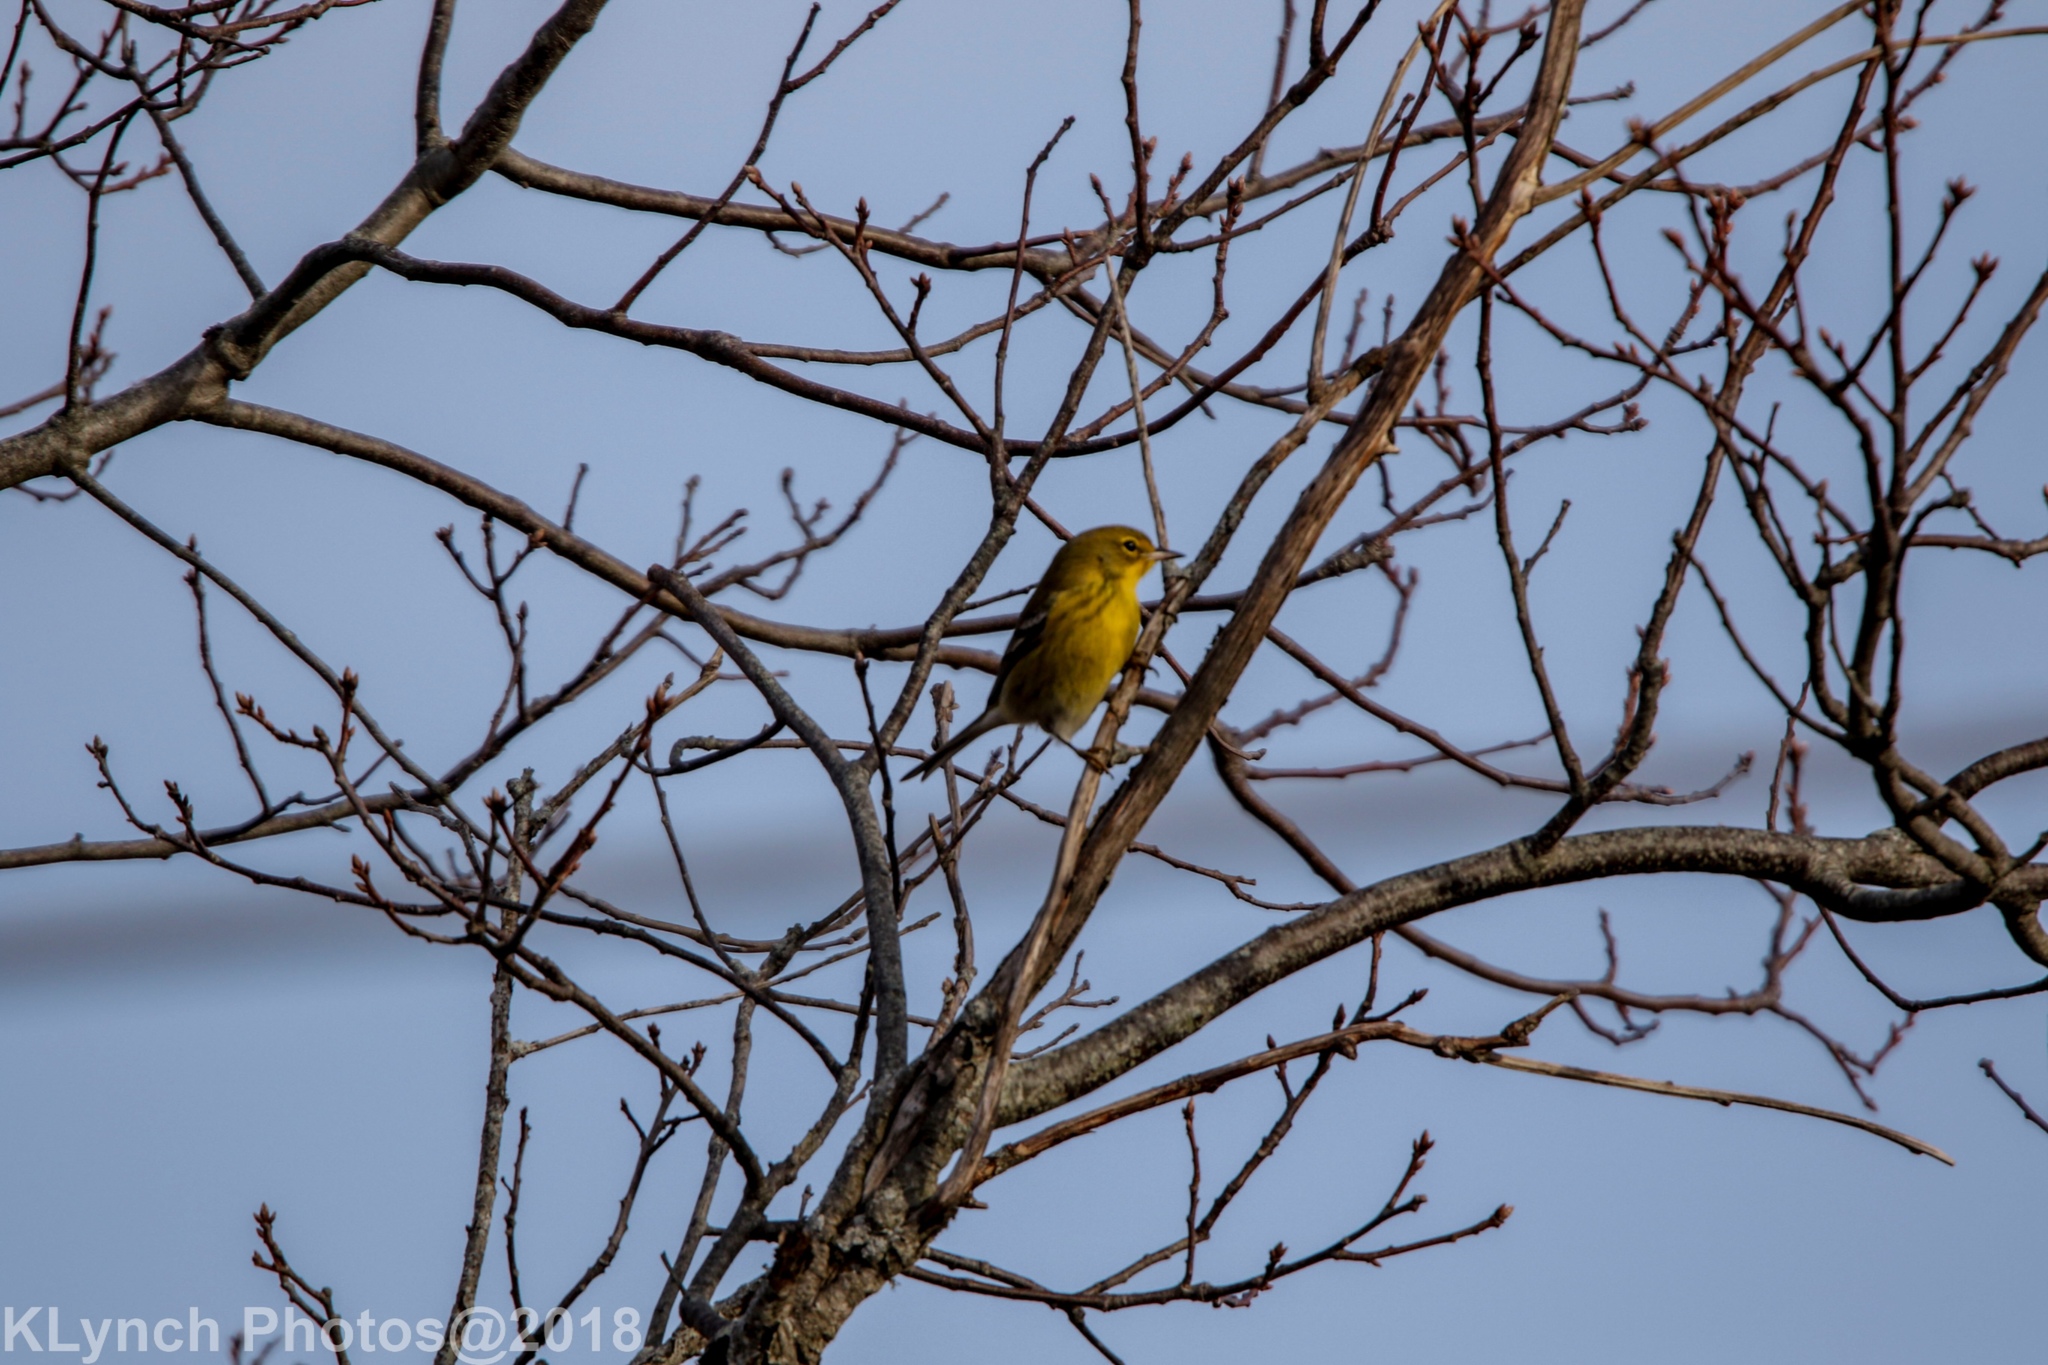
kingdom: Animalia
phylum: Chordata
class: Aves
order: Passeriformes
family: Parulidae
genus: Setophaga
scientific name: Setophaga pinus
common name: Pine warbler
